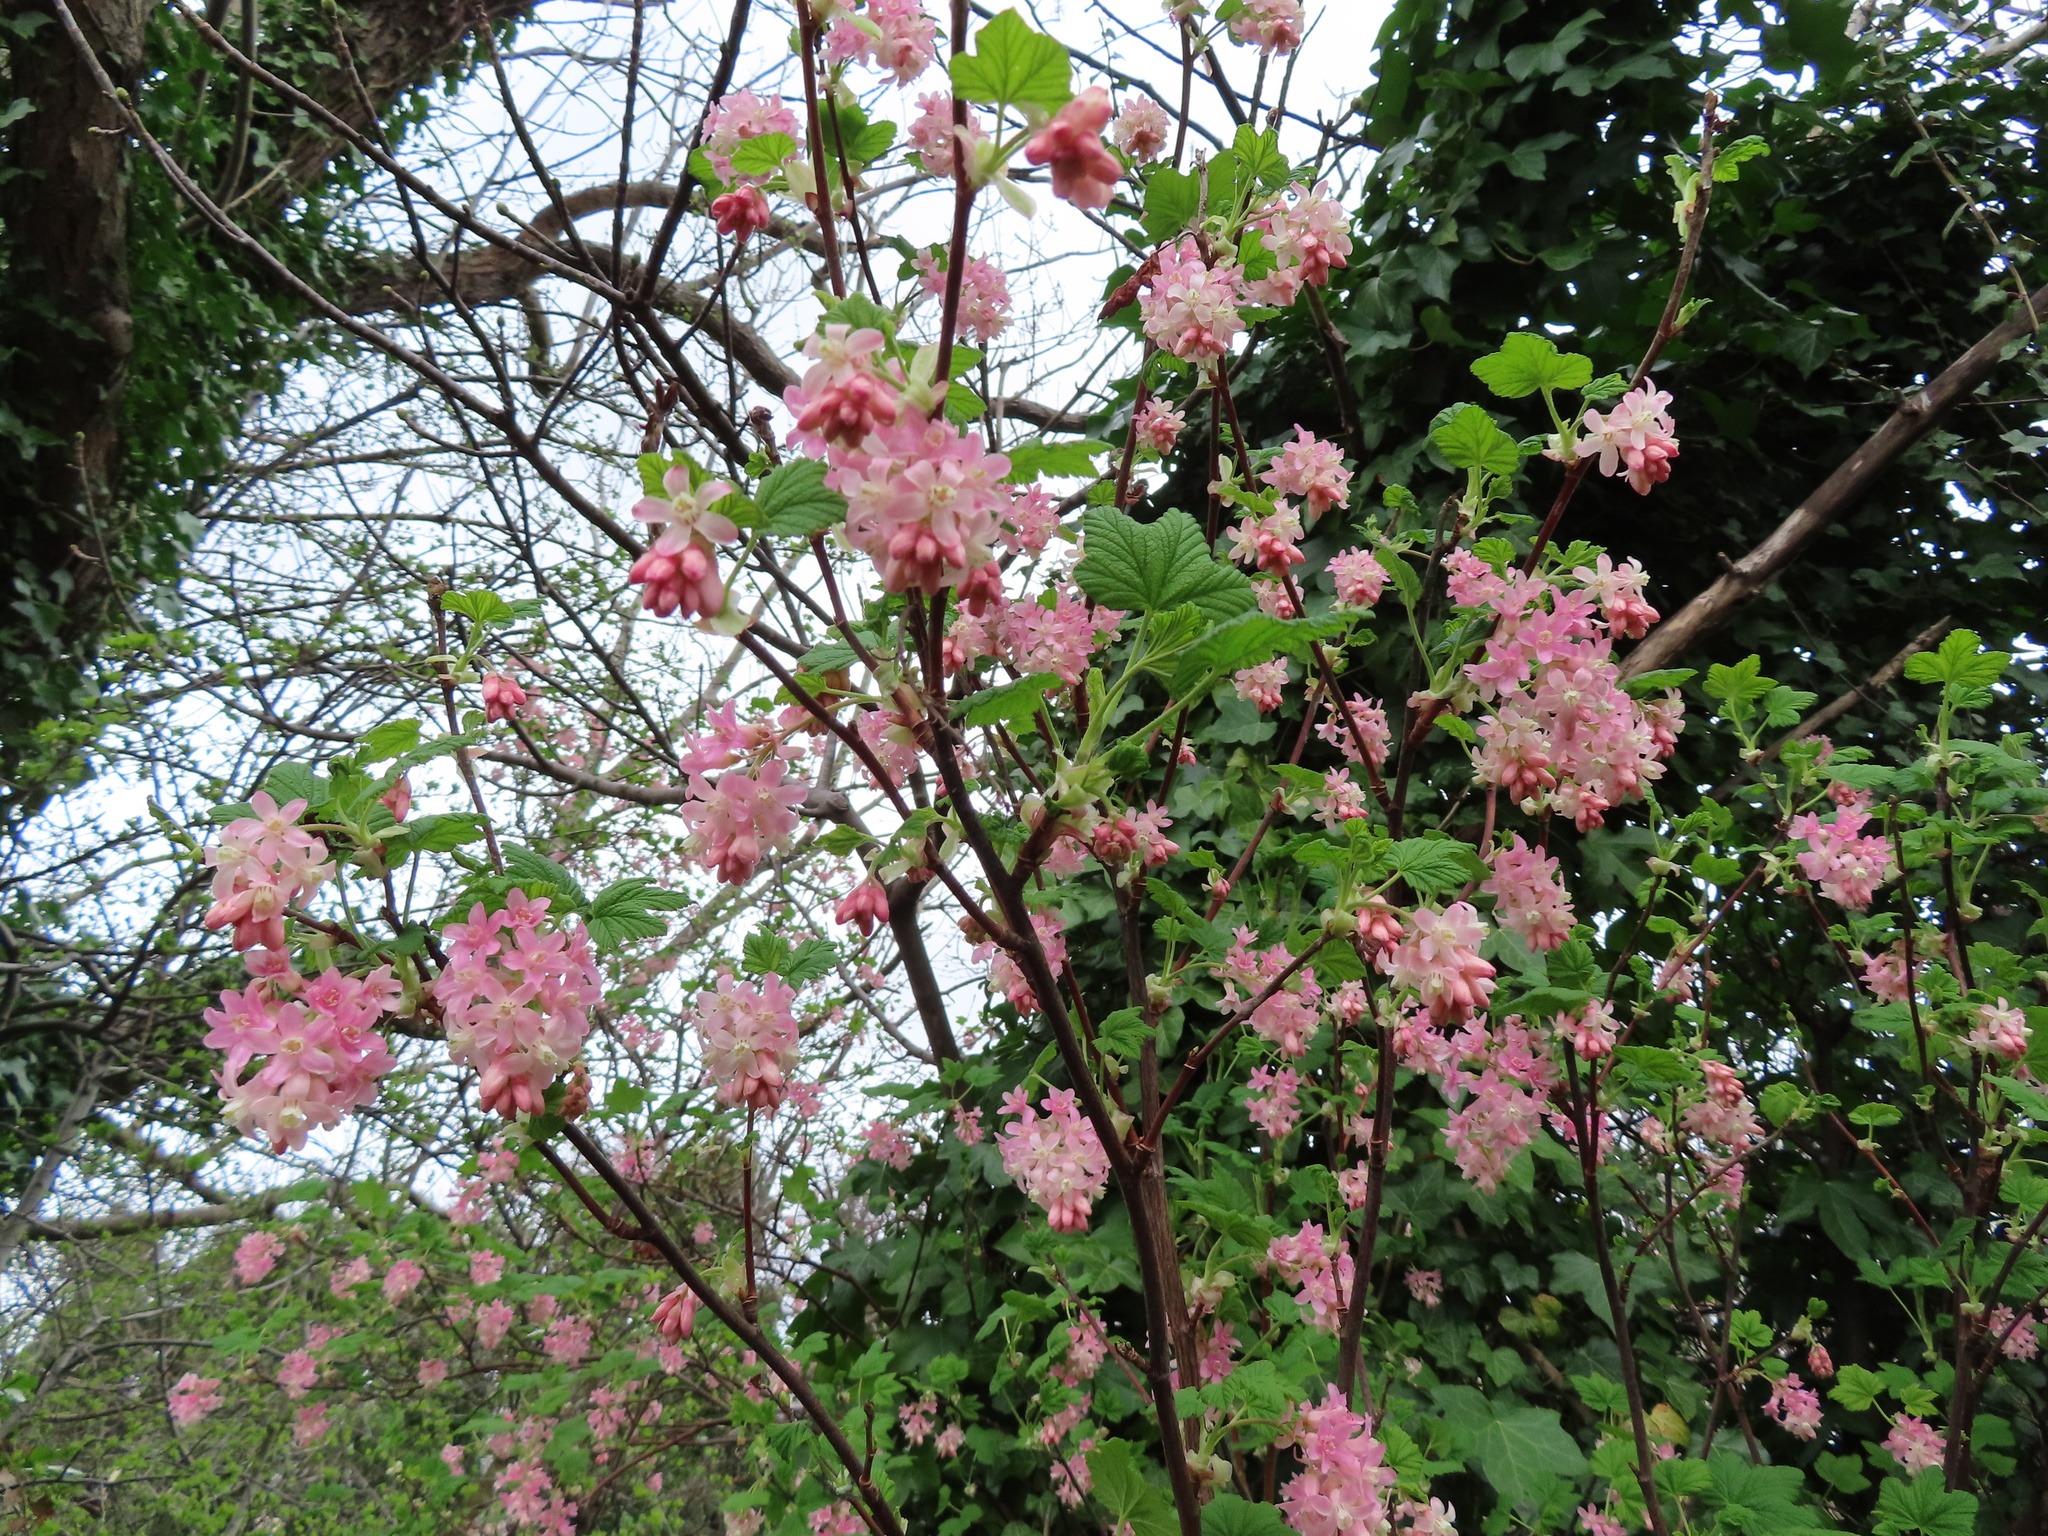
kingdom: Plantae
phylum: Tracheophyta
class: Magnoliopsida
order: Saxifragales
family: Grossulariaceae
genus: Ribes
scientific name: Ribes sanguineum
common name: Flowering currant
